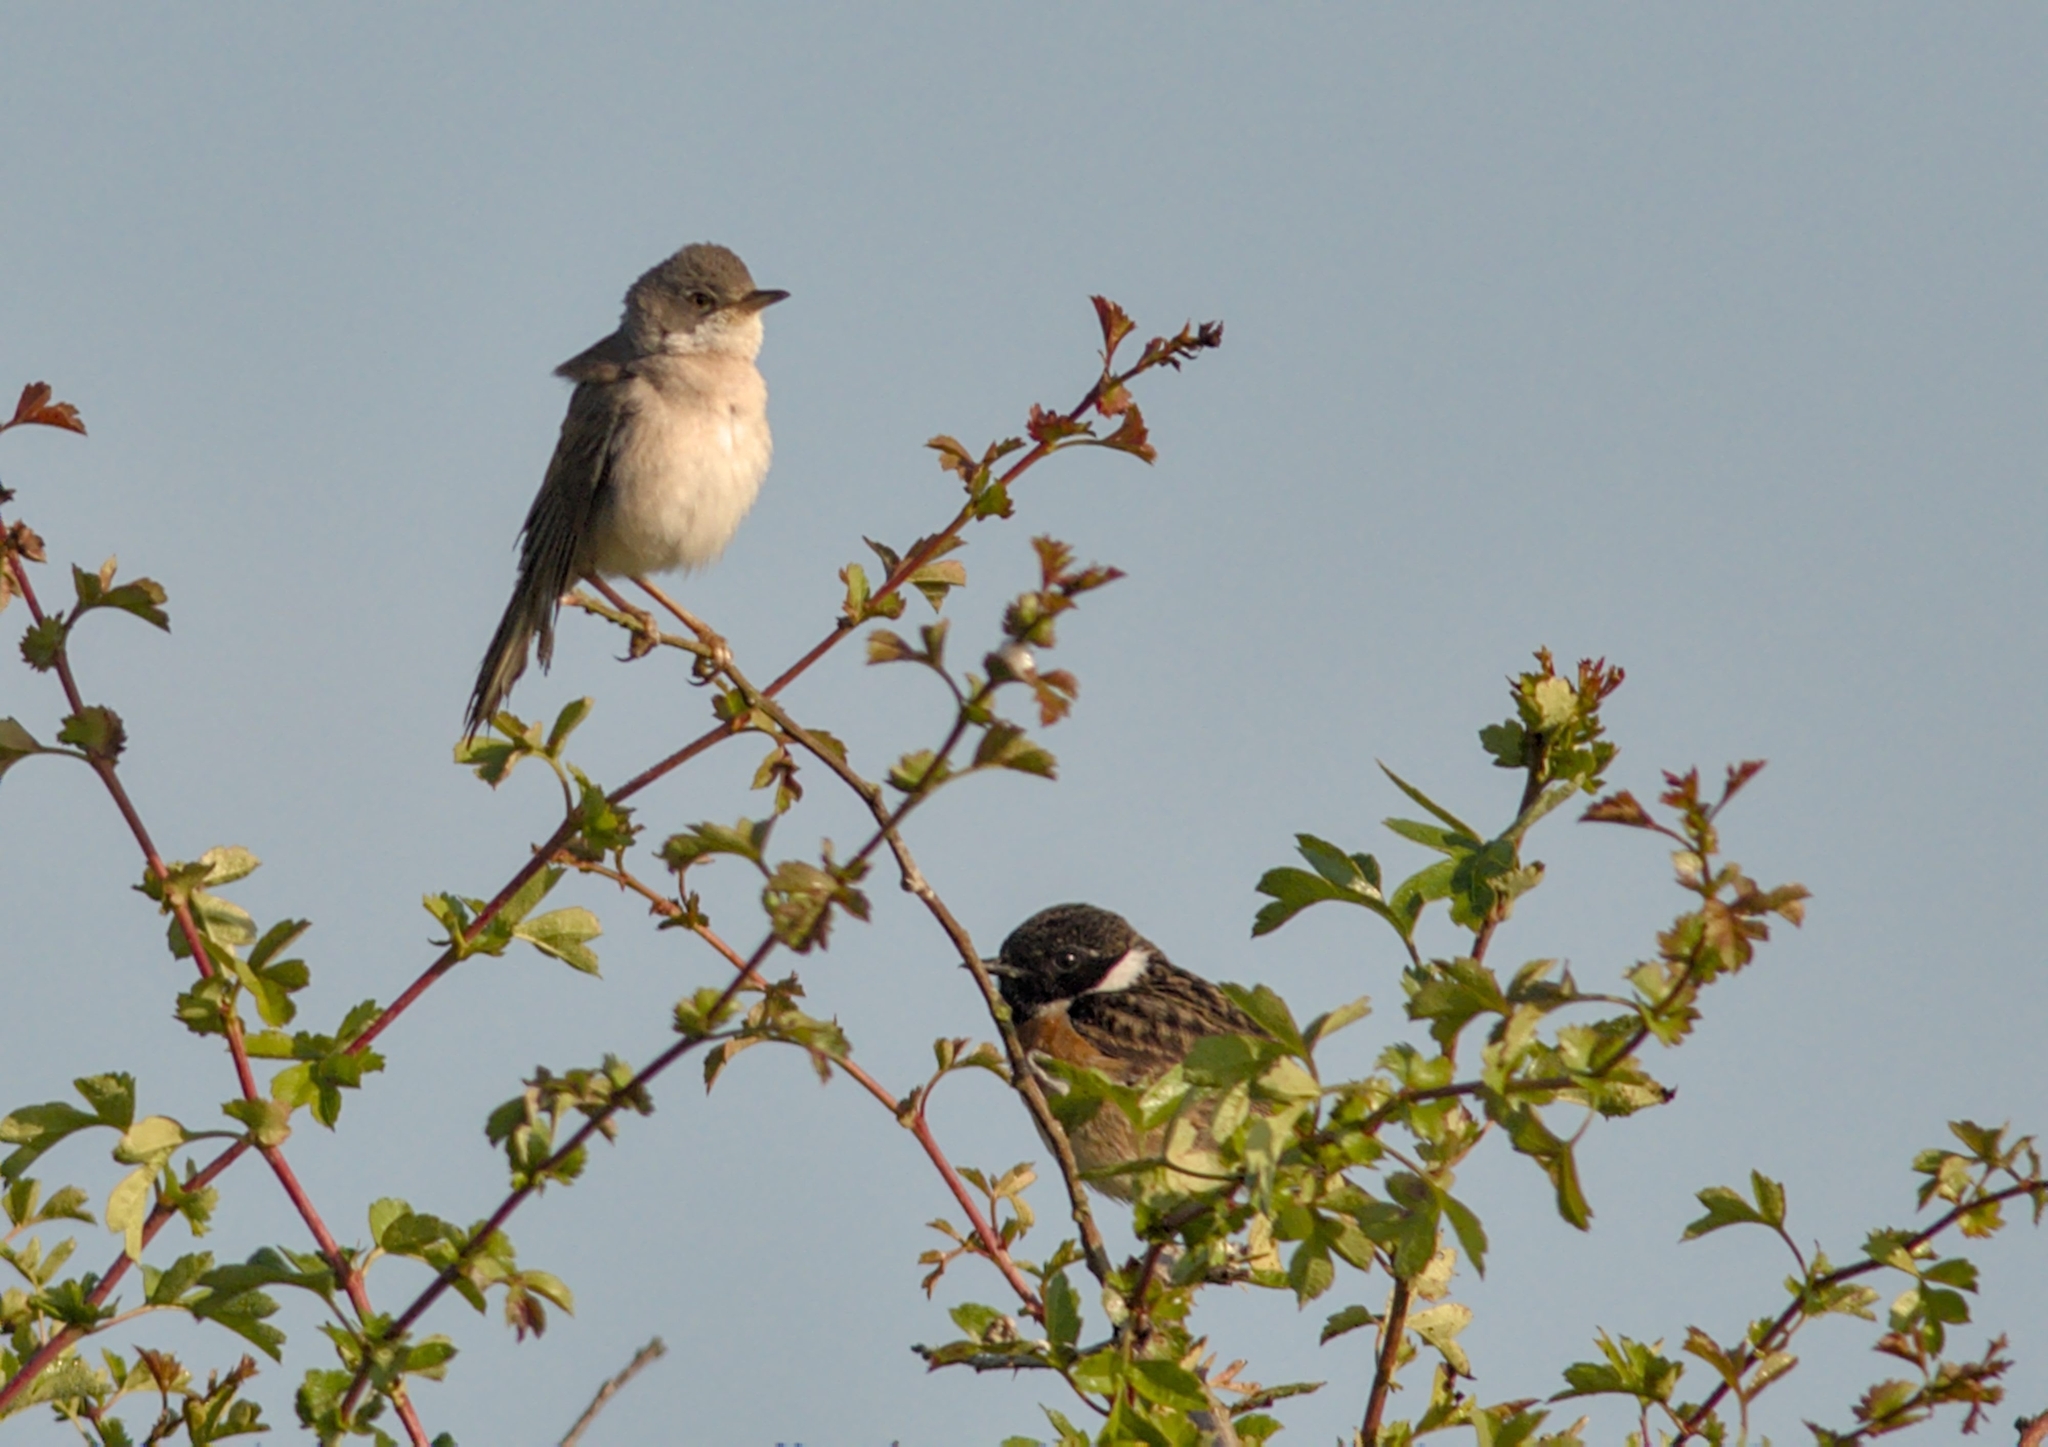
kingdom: Animalia
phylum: Chordata
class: Aves
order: Passeriformes
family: Sylviidae
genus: Sylvia
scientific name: Sylvia communis
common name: Common whitethroat
